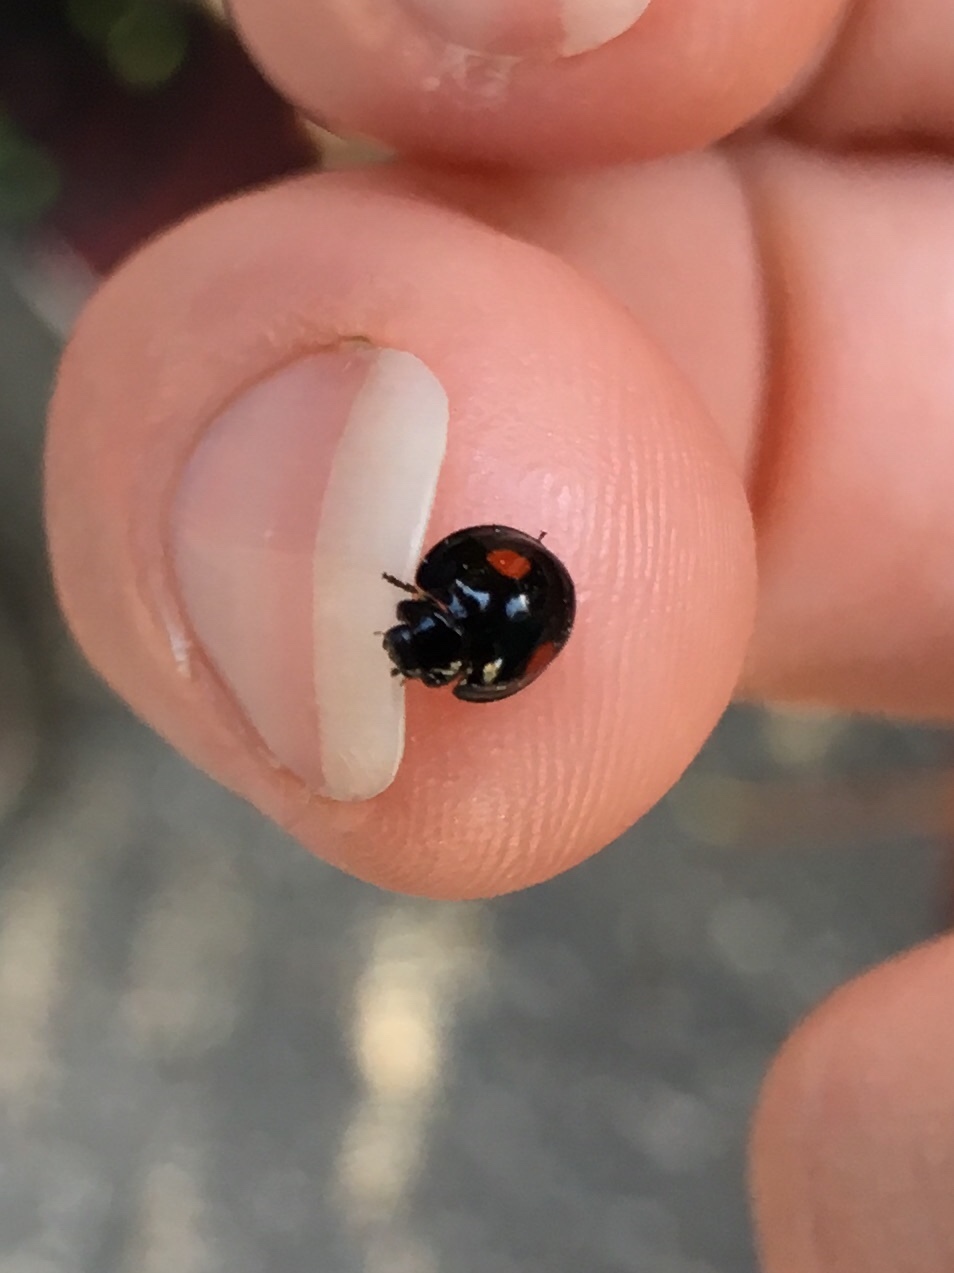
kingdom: Animalia
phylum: Arthropoda
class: Insecta
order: Coleoptera
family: Coccinellidae
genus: Chilocorus
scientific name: Chilocorus stigma
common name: Twicestabbed lady beetle
